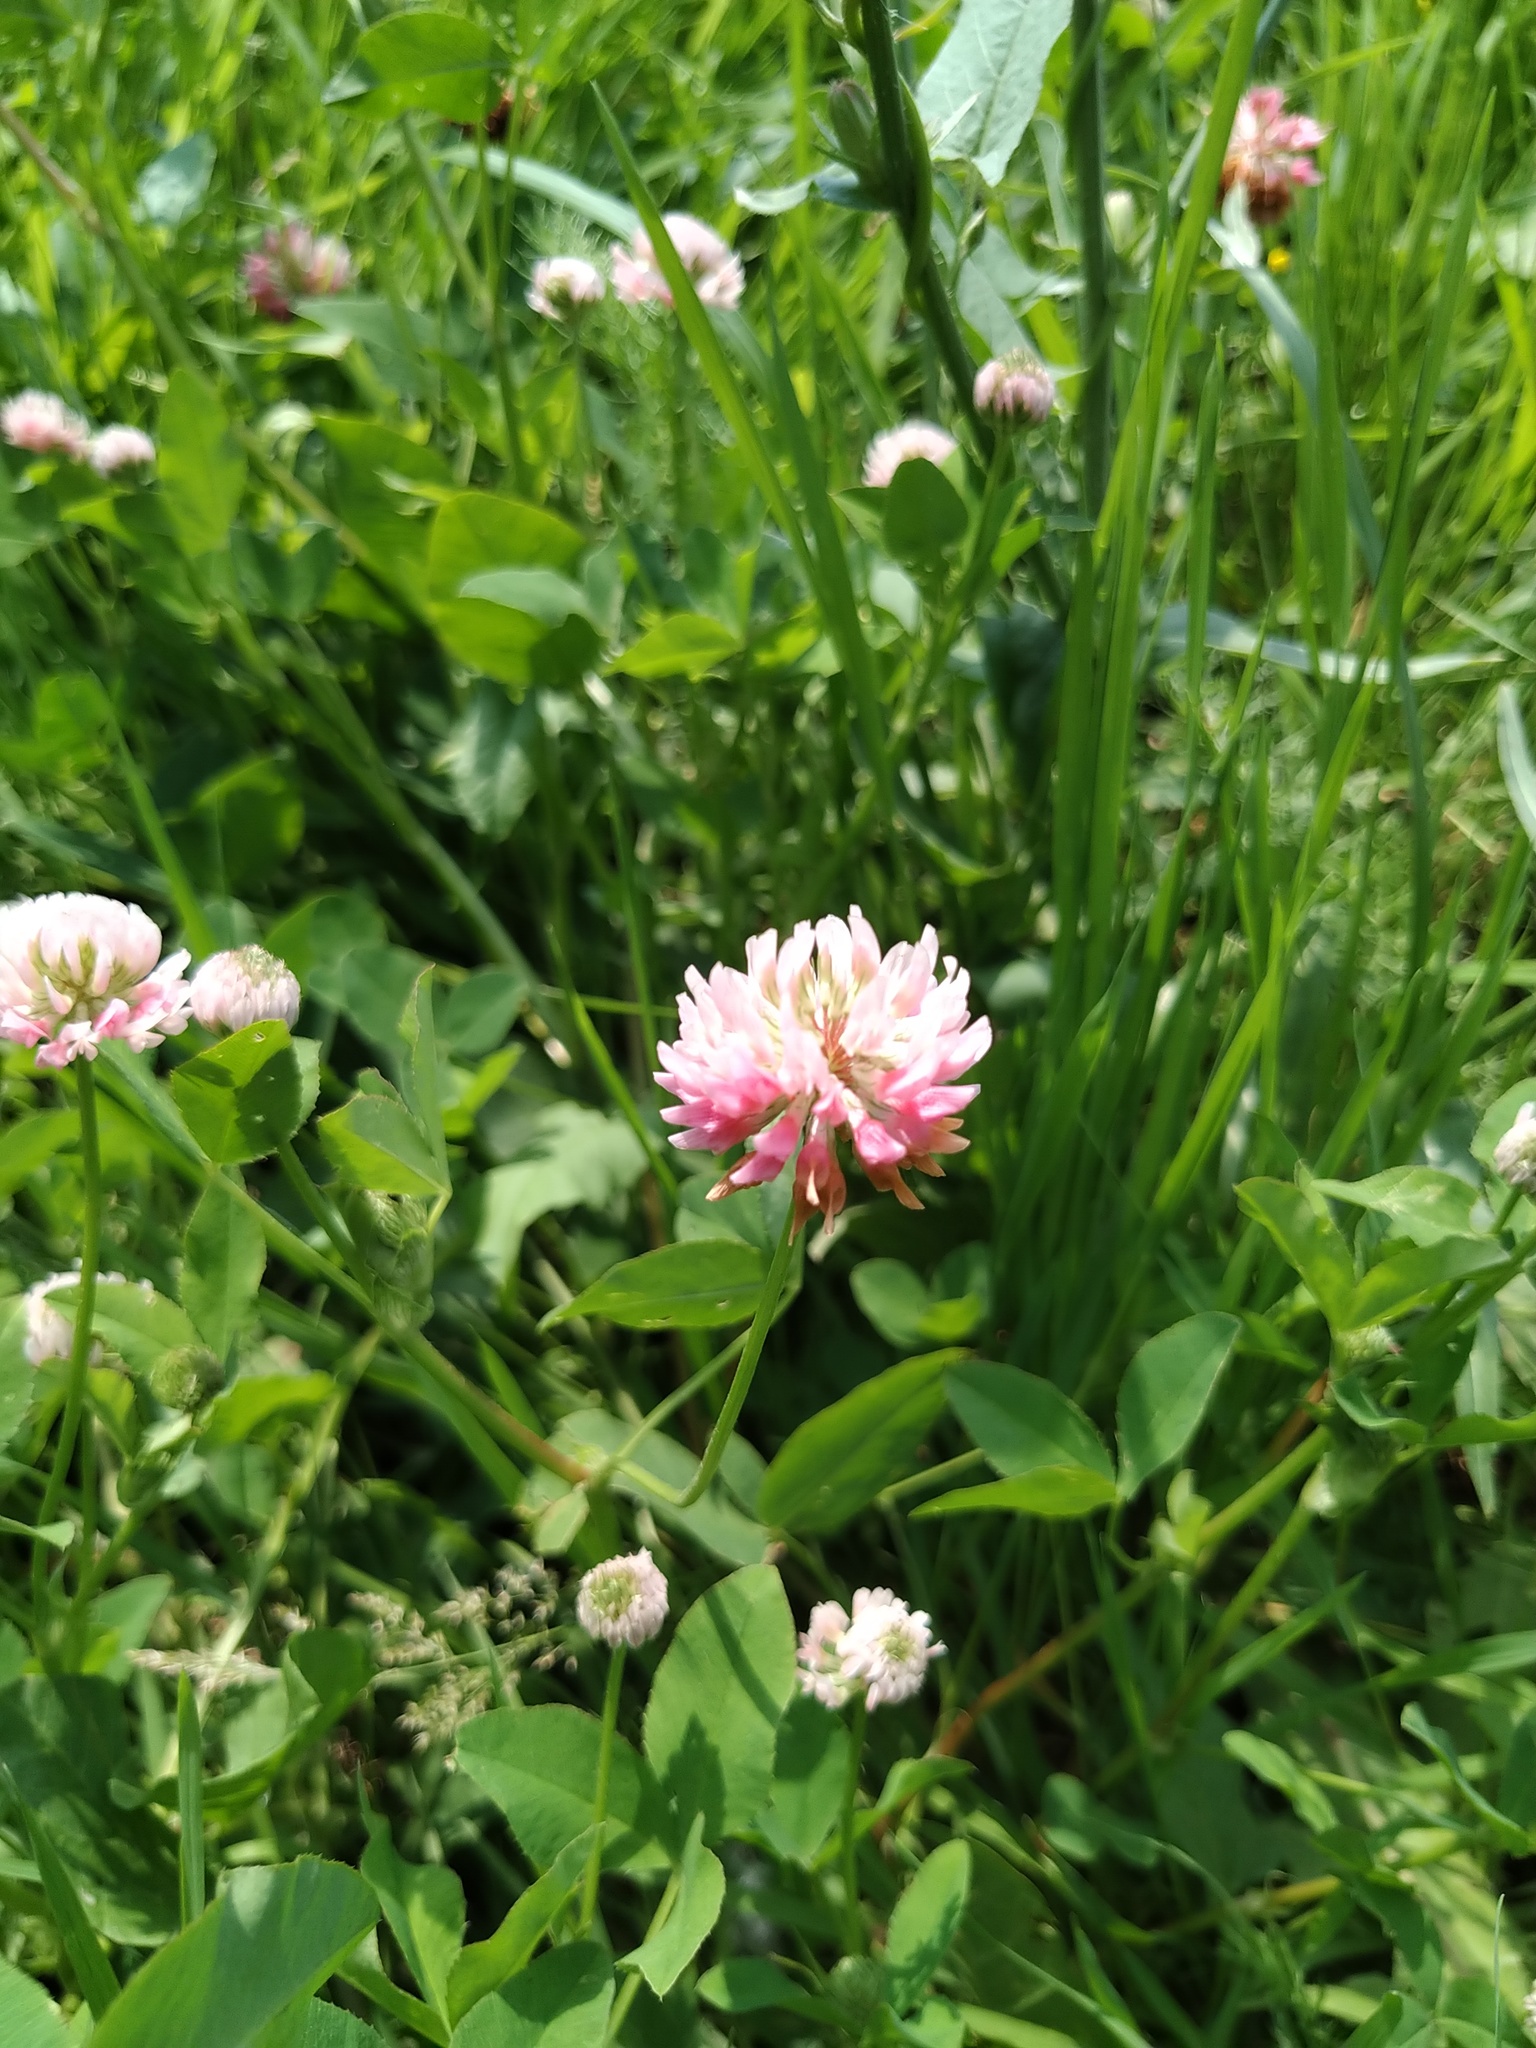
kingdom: Plantae
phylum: Tracheophyta
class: Magnoliopsida
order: Fabales
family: Fabaceae
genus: Trifolium
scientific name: Trifolium hybridum
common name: Alsike clover
